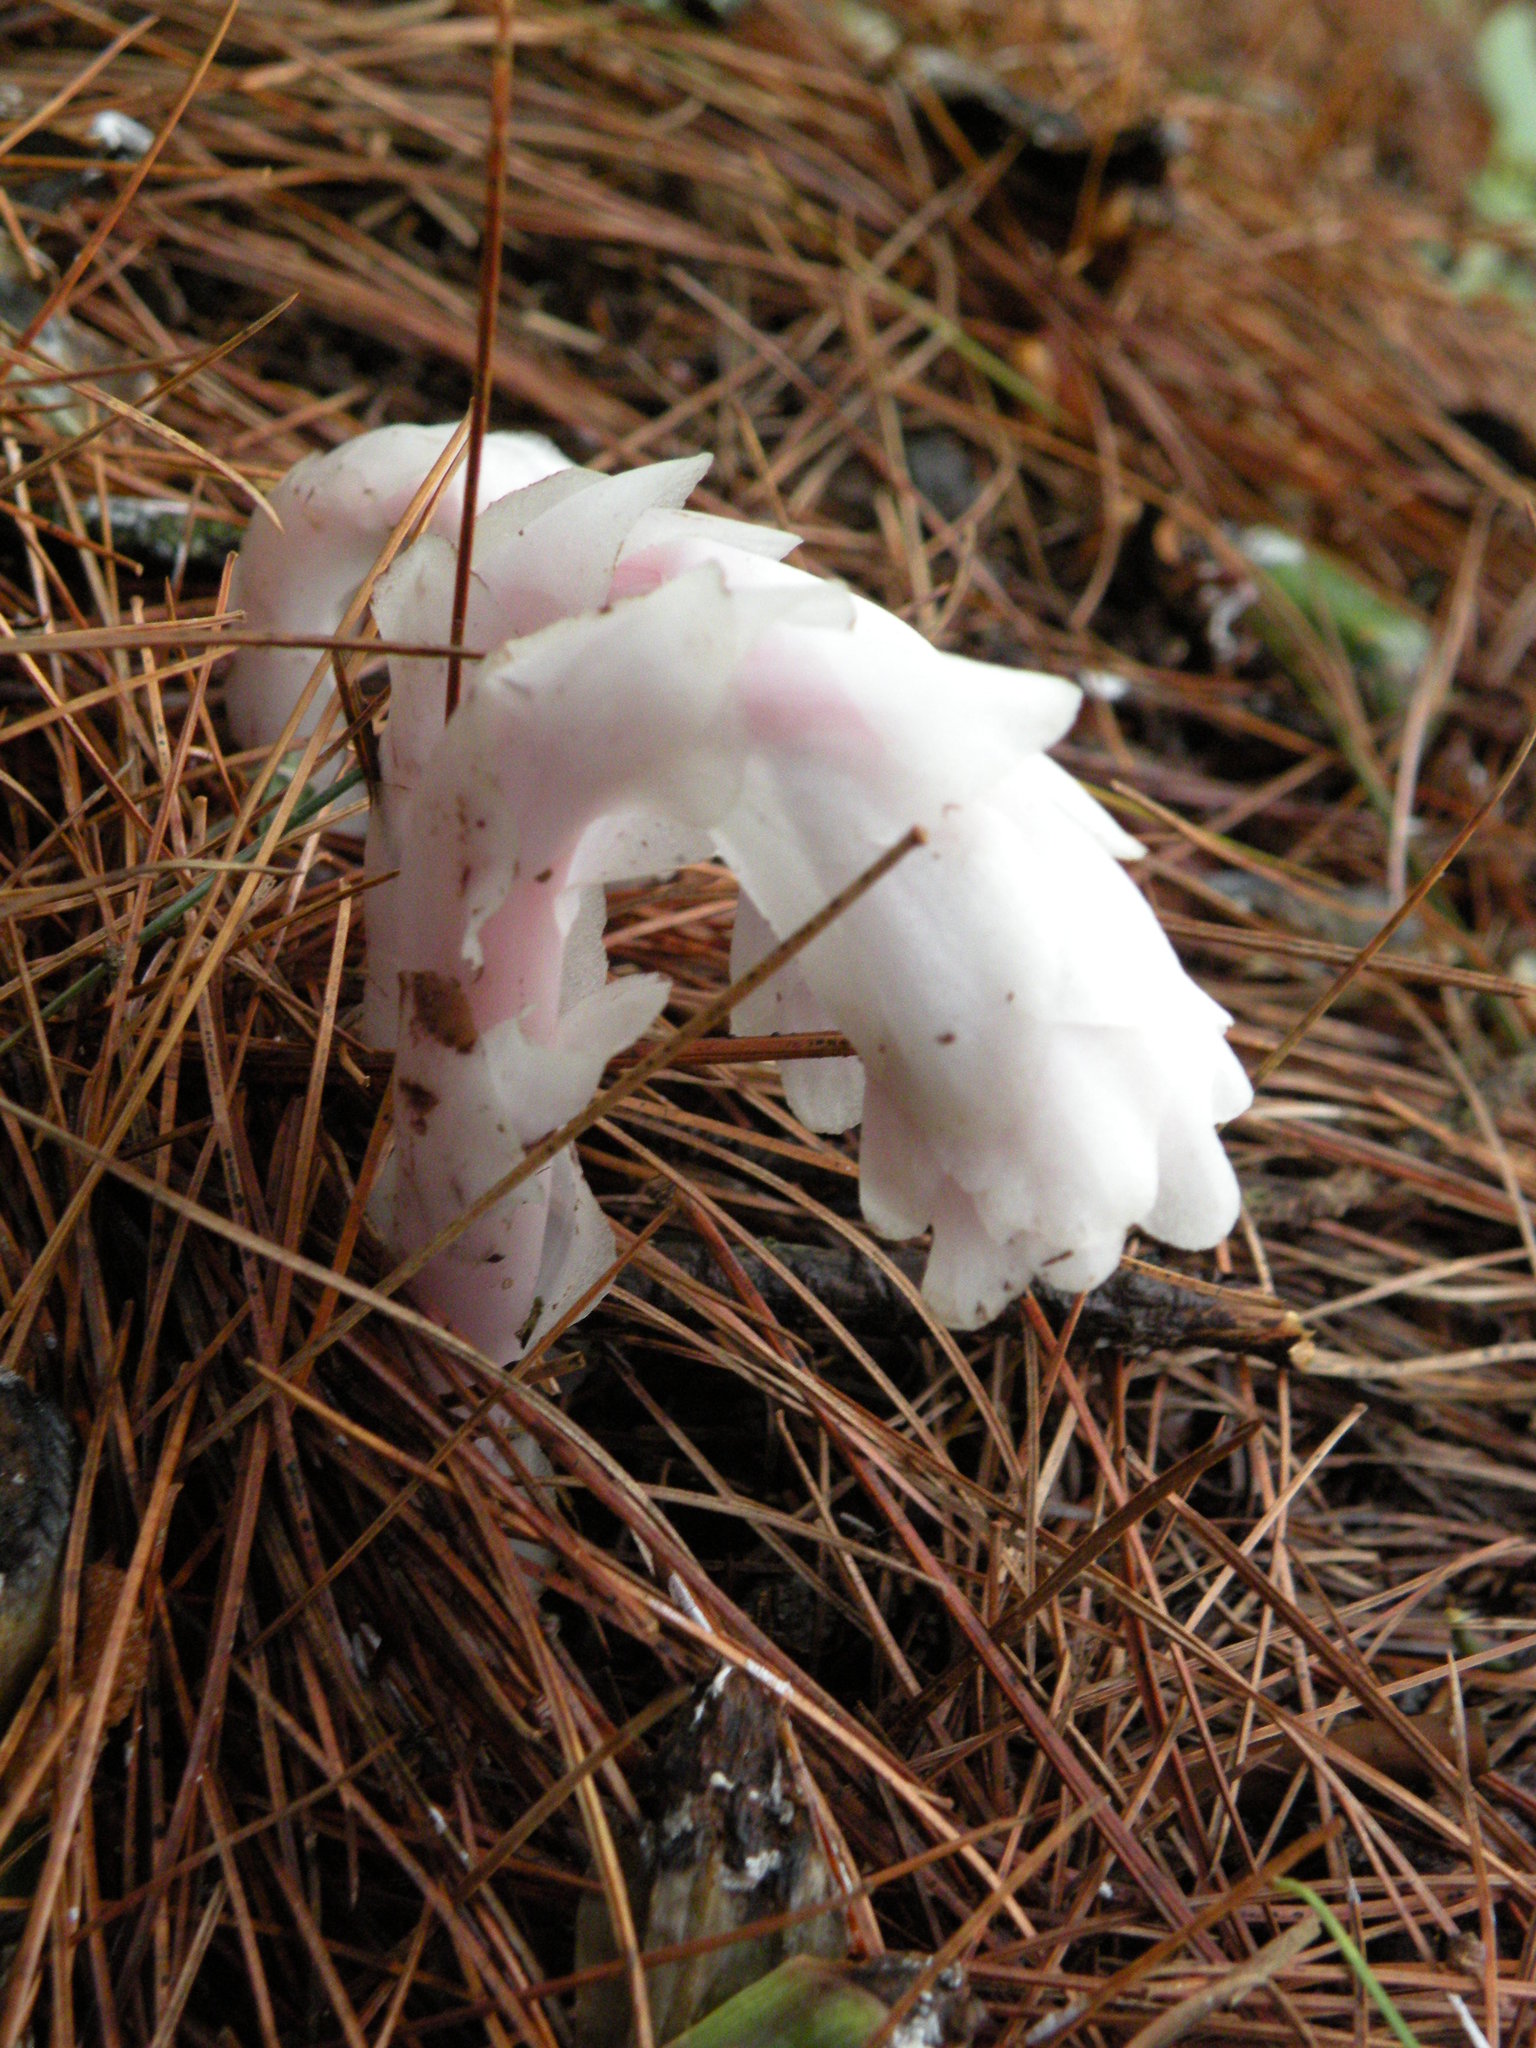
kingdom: Plantae
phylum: Tracheophyta
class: Magnoliopsida
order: Ericales
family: Ericaceae
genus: Monotropa
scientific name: Monotropa uniflora
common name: Convulsion root
